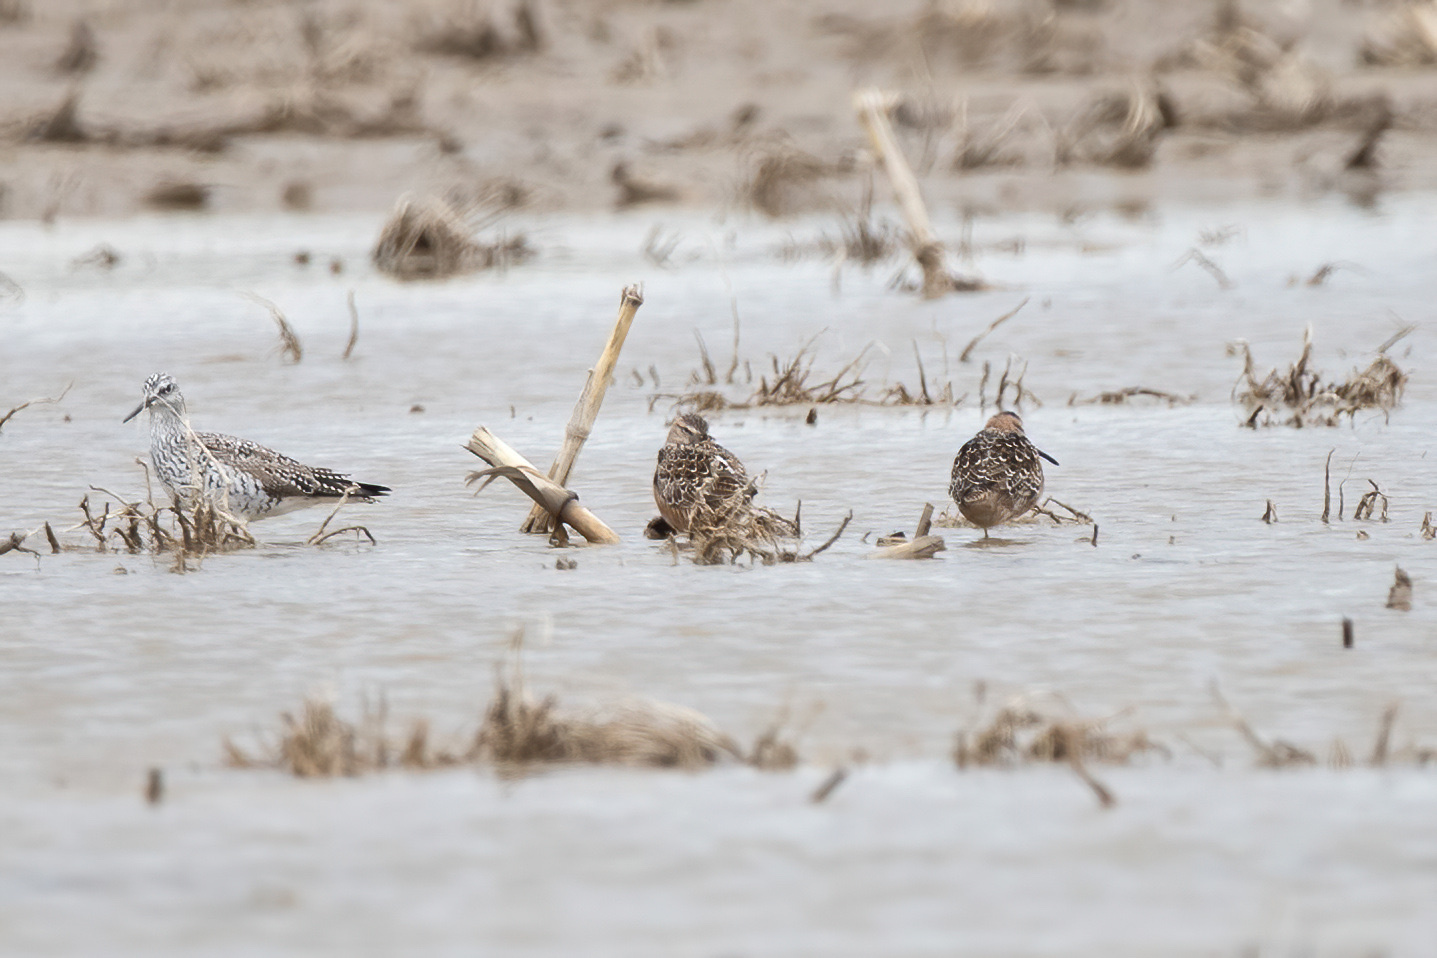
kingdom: Animalia
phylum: Chordata
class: Aves
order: Charadriiformes
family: Scolopacidae
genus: Limnodromus
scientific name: Limnodromus scolopaceus
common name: Long-billed dowitcher
